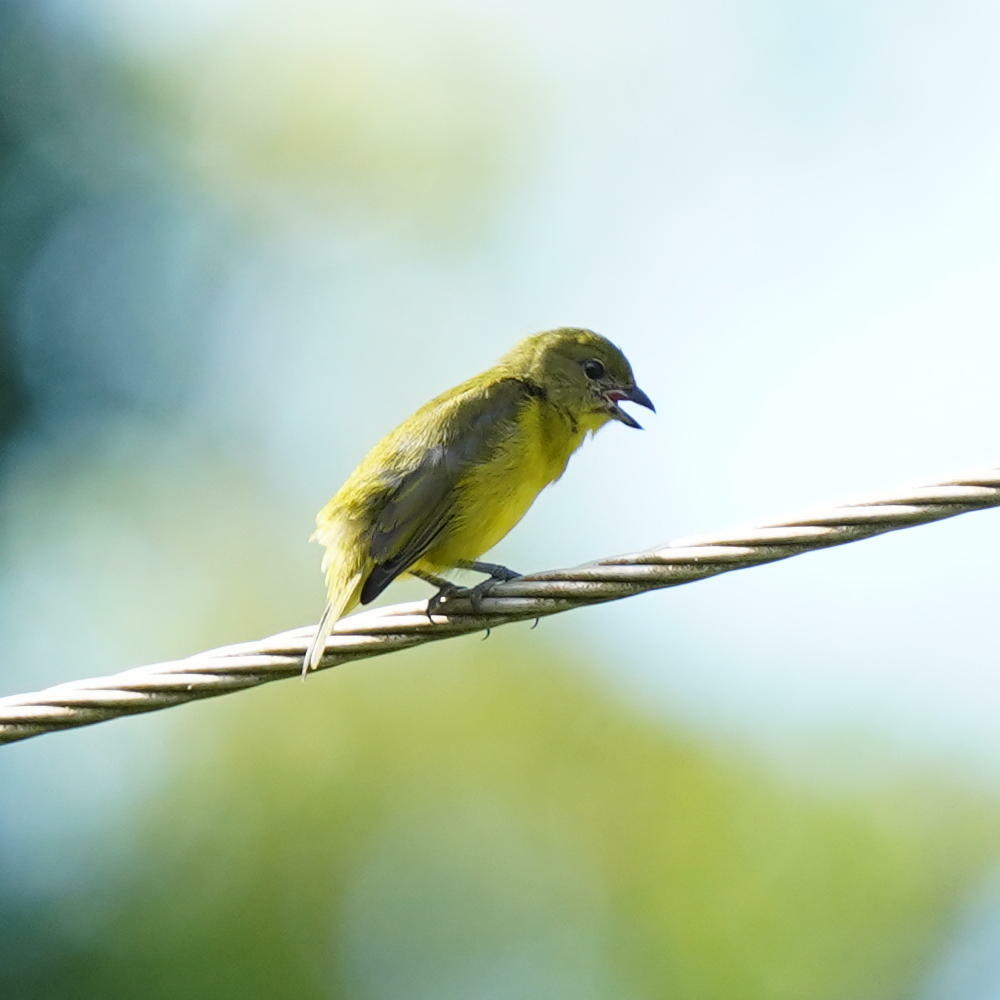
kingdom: Animalia
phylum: Chordata
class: Aves
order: Passeriformes
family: Fringillidae
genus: Euphonia
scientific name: Euphonia laniirostris
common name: Thick-billed euphonia
